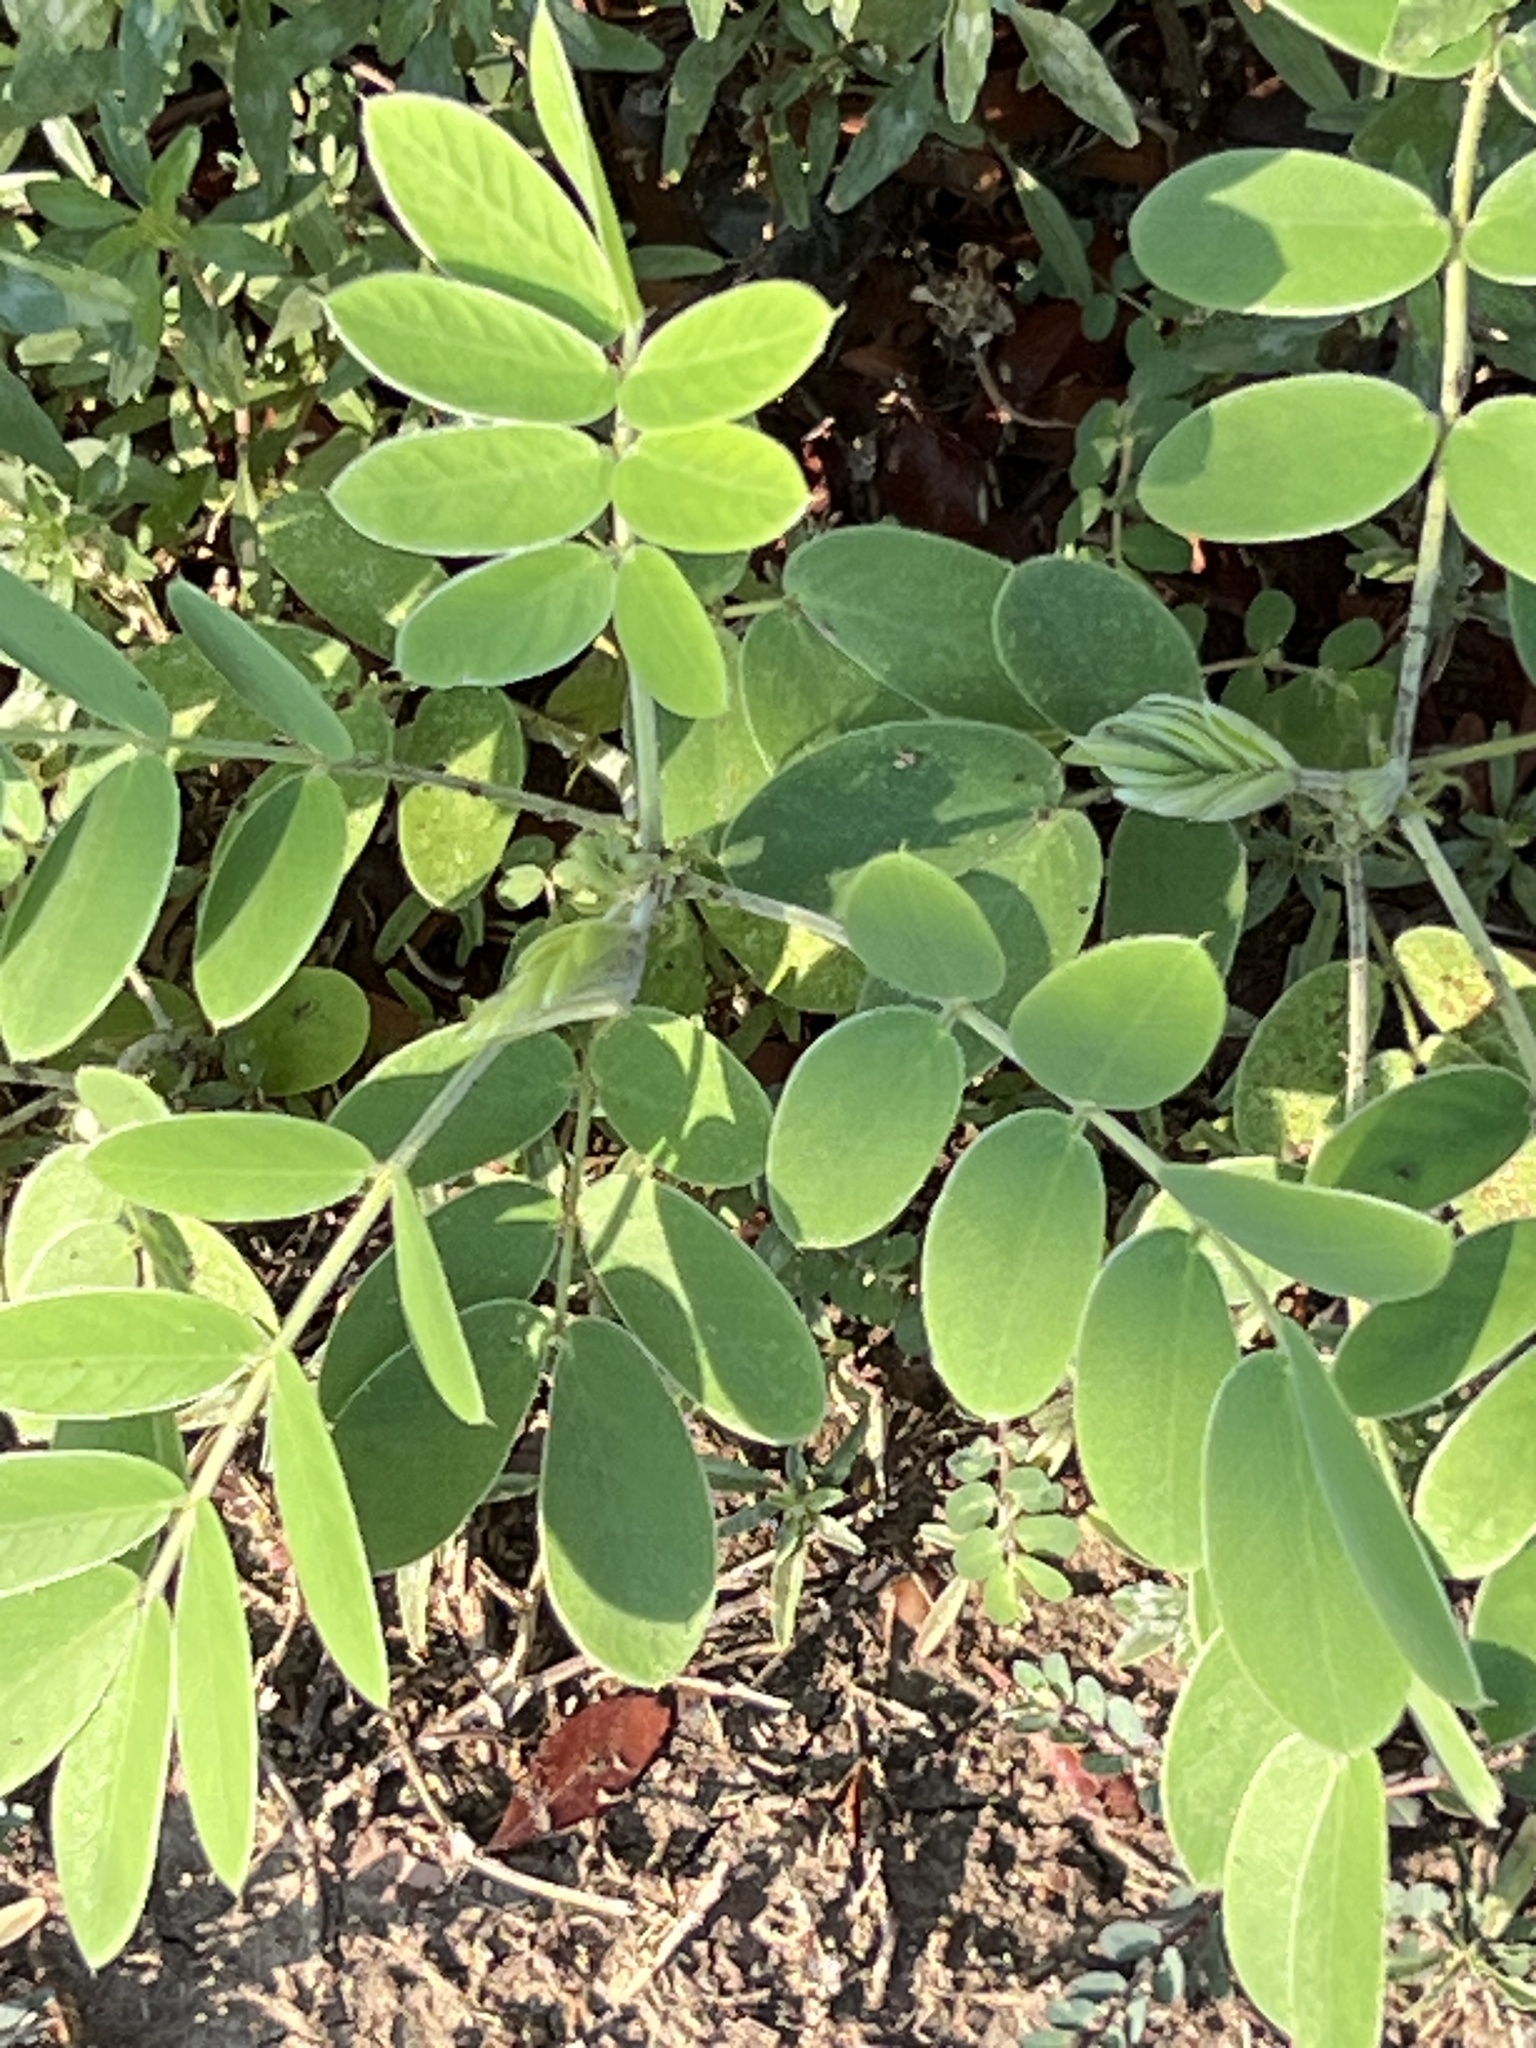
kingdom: Plantae
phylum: Tracheophyta
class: Magnoliopsida
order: Fabales
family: Fabaceae
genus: Senna
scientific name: Senna lindheimeriana
